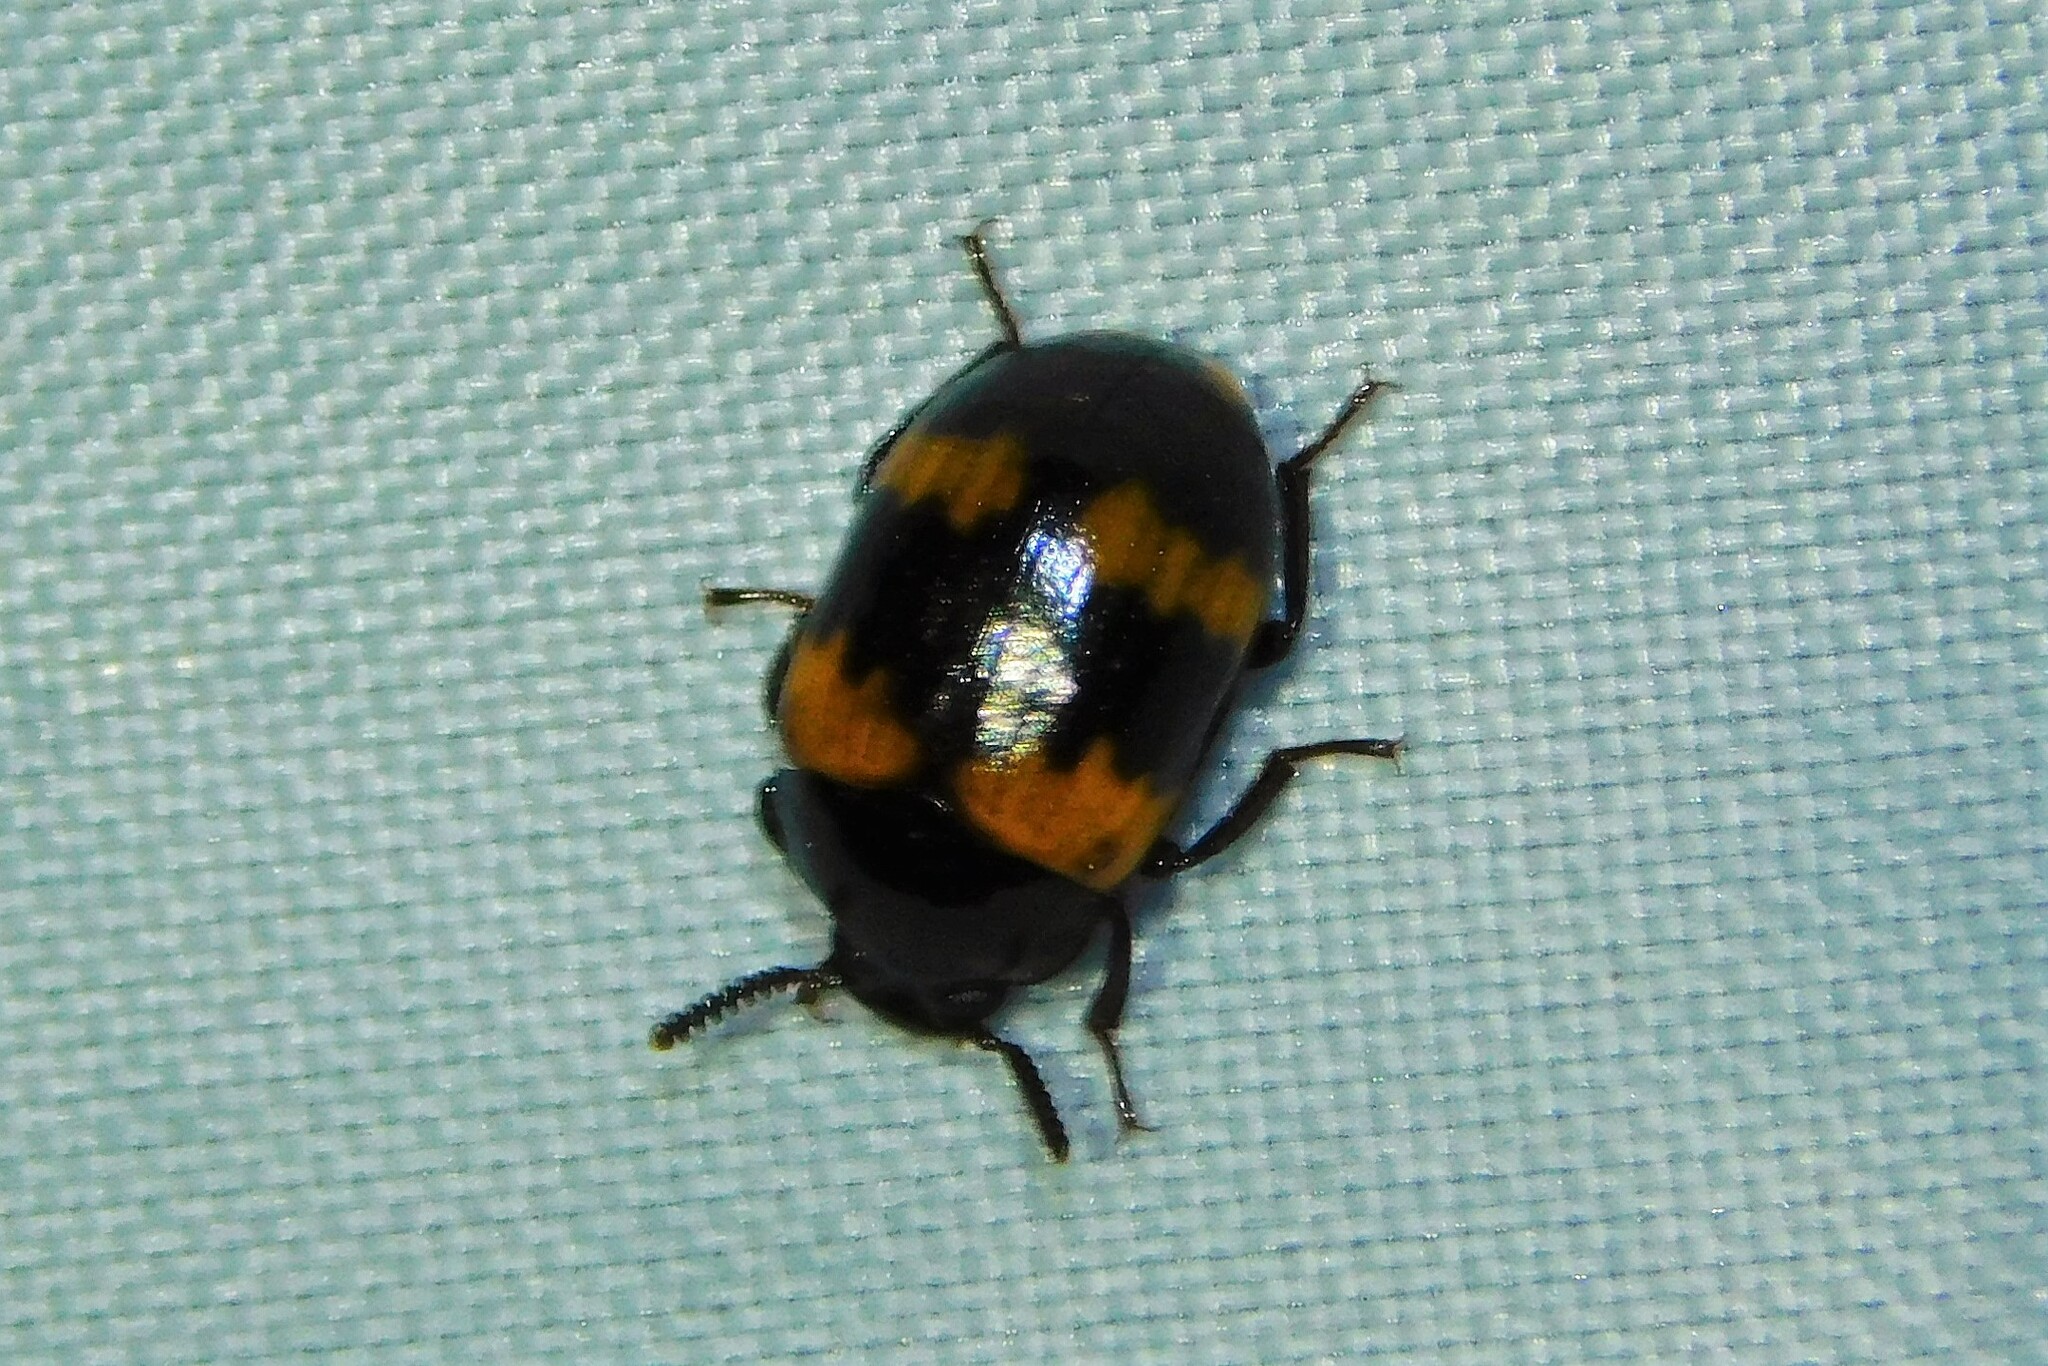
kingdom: Animalia
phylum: Arthropoda
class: Insecta
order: Coleoptera
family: Tenebrionidae
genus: Diaperis
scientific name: Diaperis boleti
